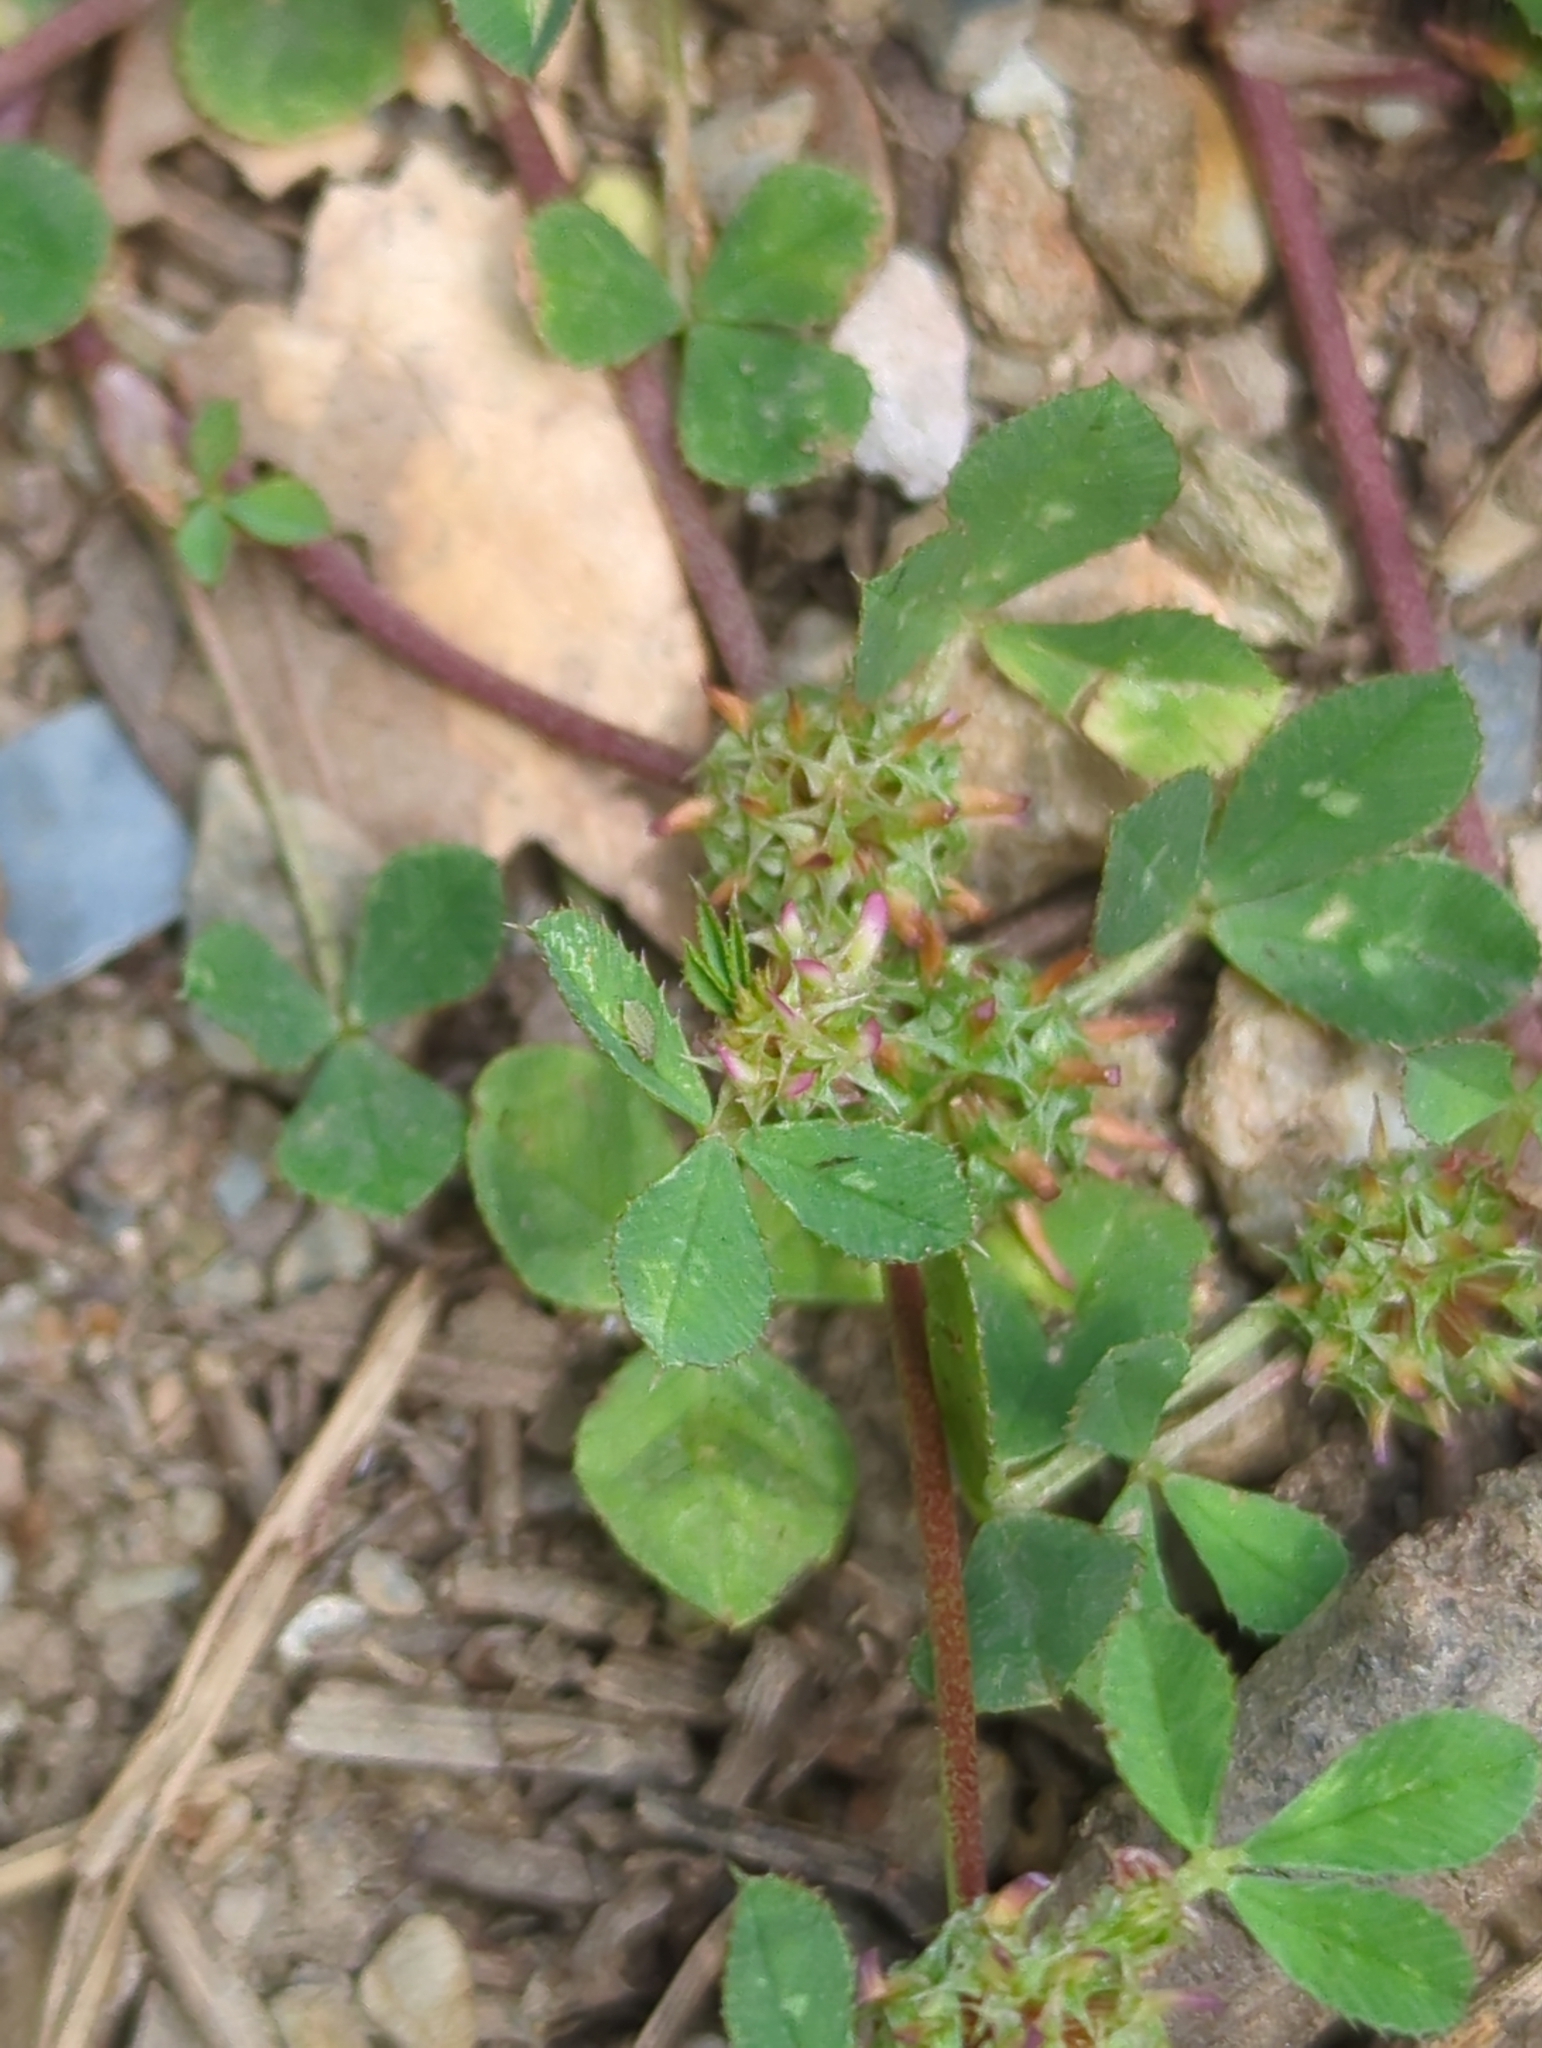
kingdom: Plantae
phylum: Tracheophyta
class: Magnoliopsida
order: Fabales
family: Fabaceae
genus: Trifolium
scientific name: Trifolium glomeratum
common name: Clustered clover
